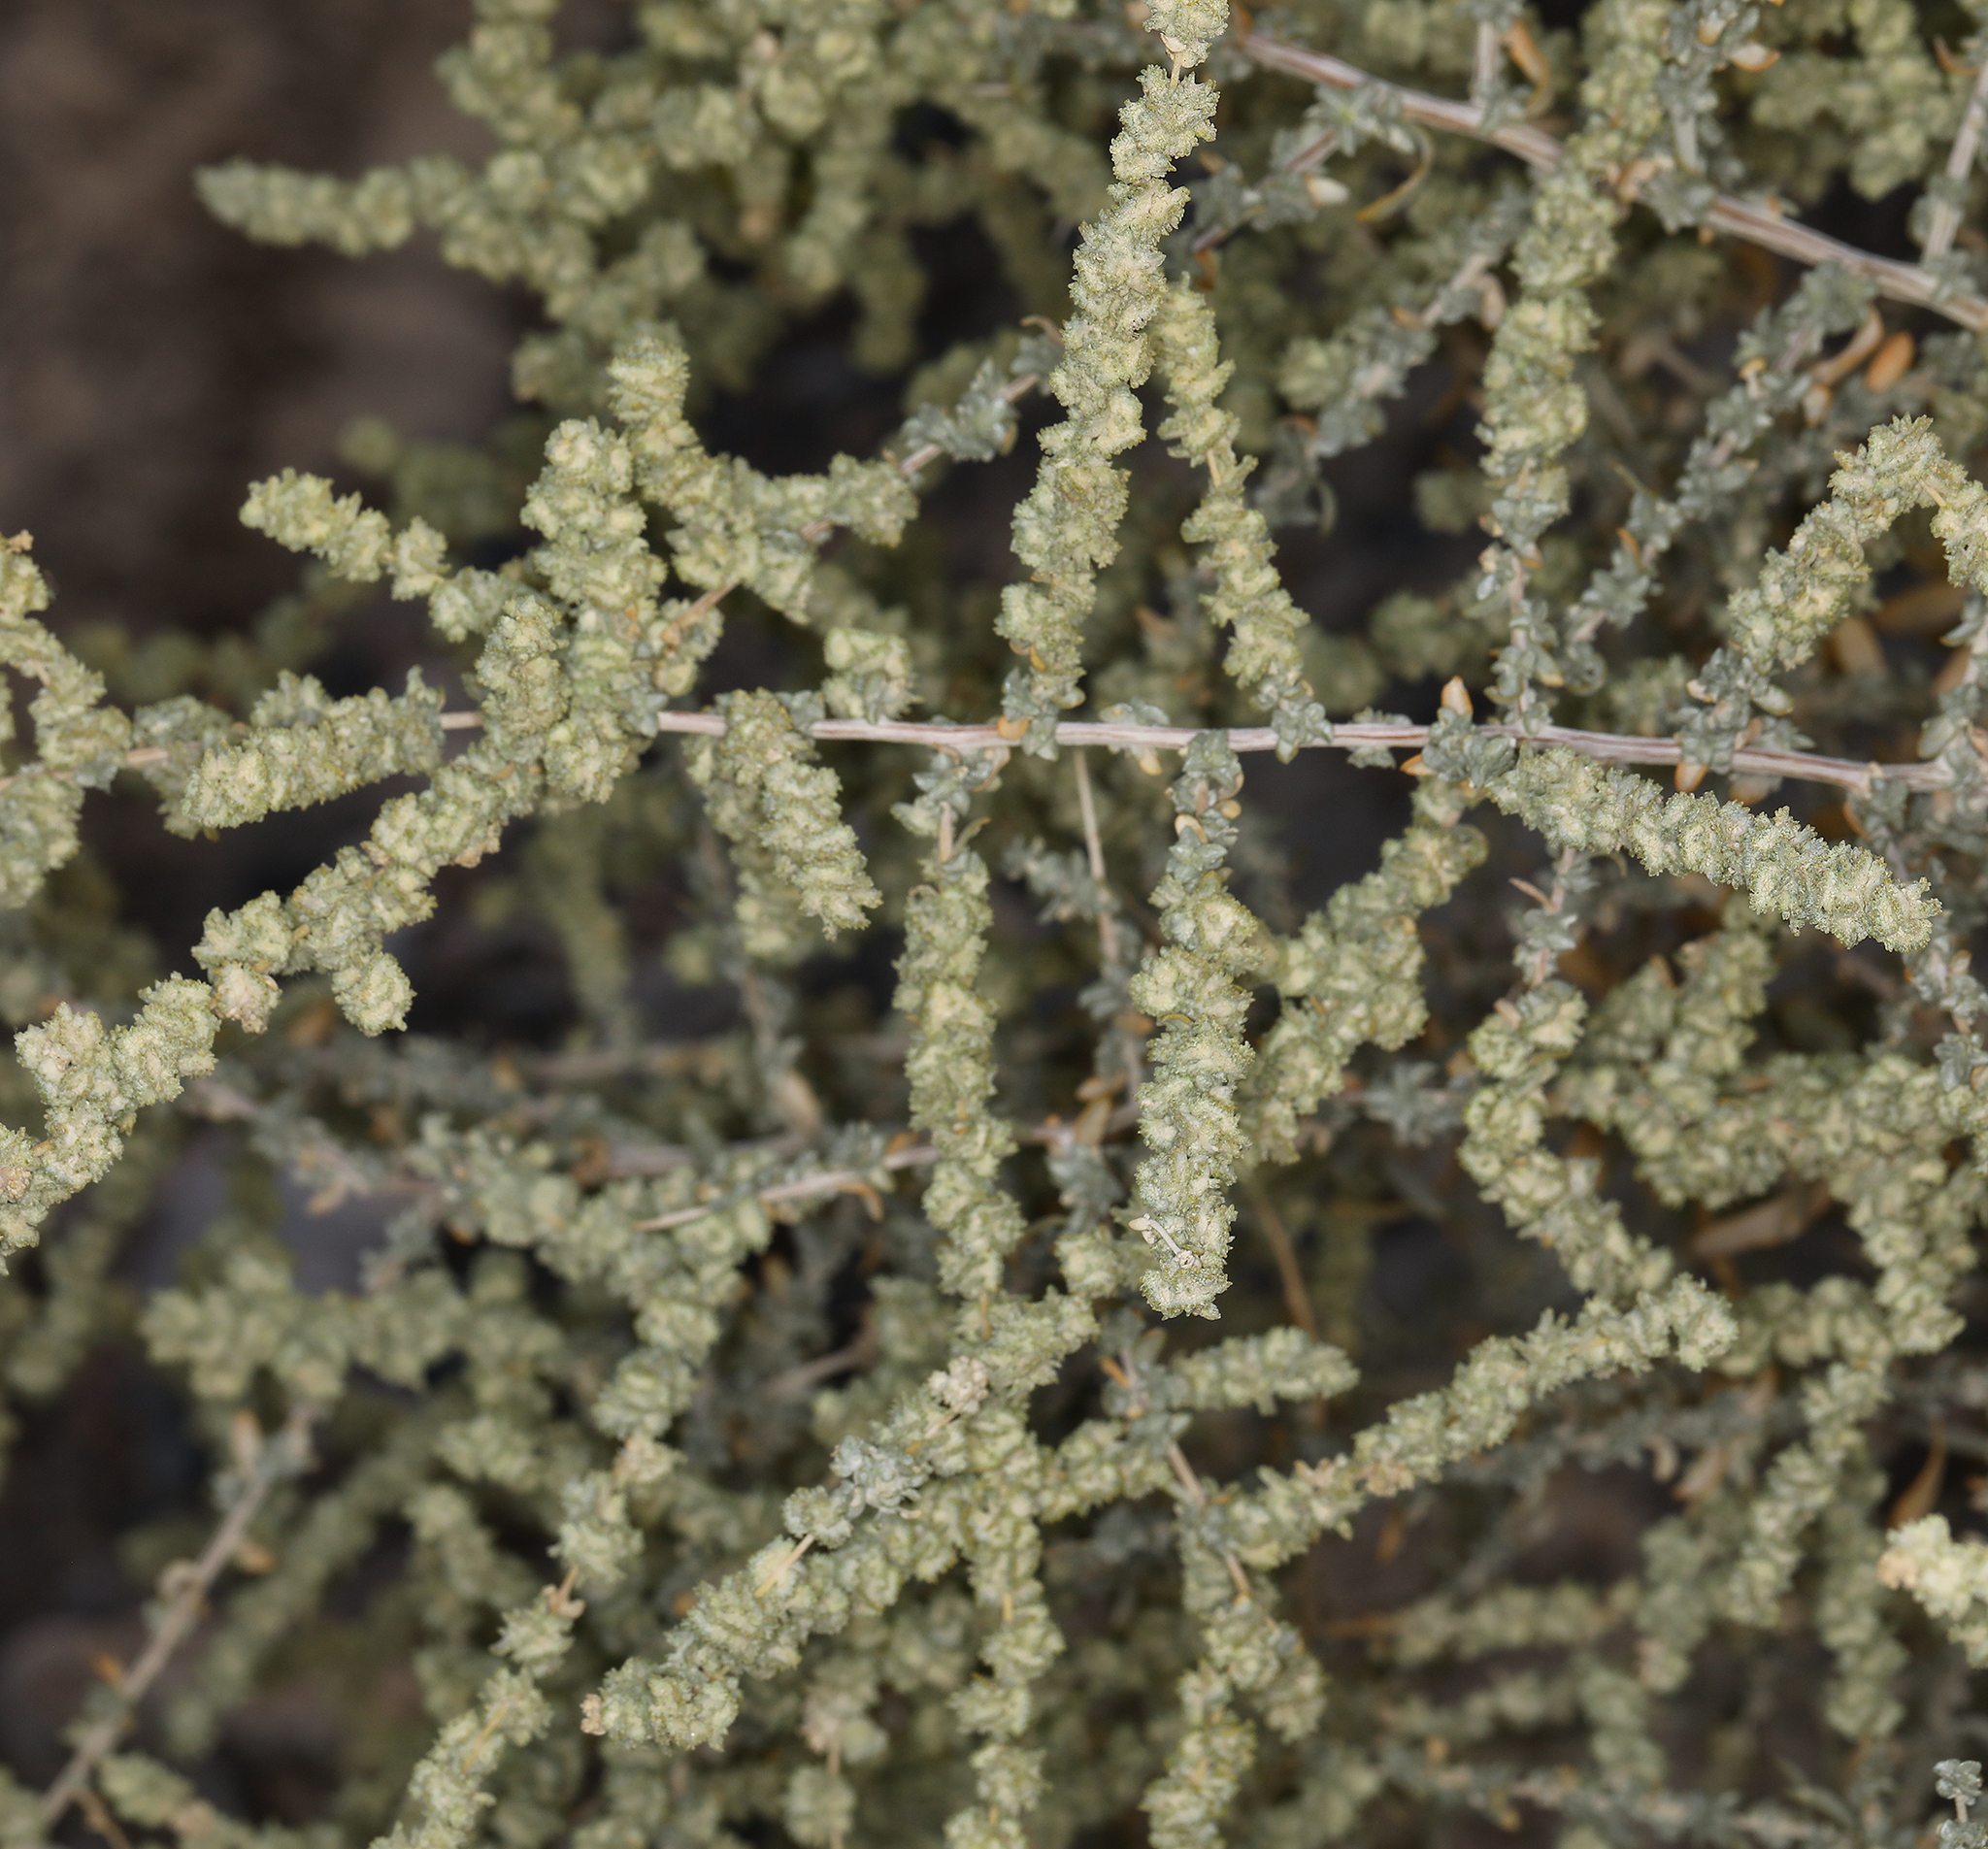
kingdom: Plantae
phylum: Tracheophyta
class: Magnoliopsida
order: Caryophyllales
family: Amaranthaceae
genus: Atriplex
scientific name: Atriplex polycarpa
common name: Desert saltbush
